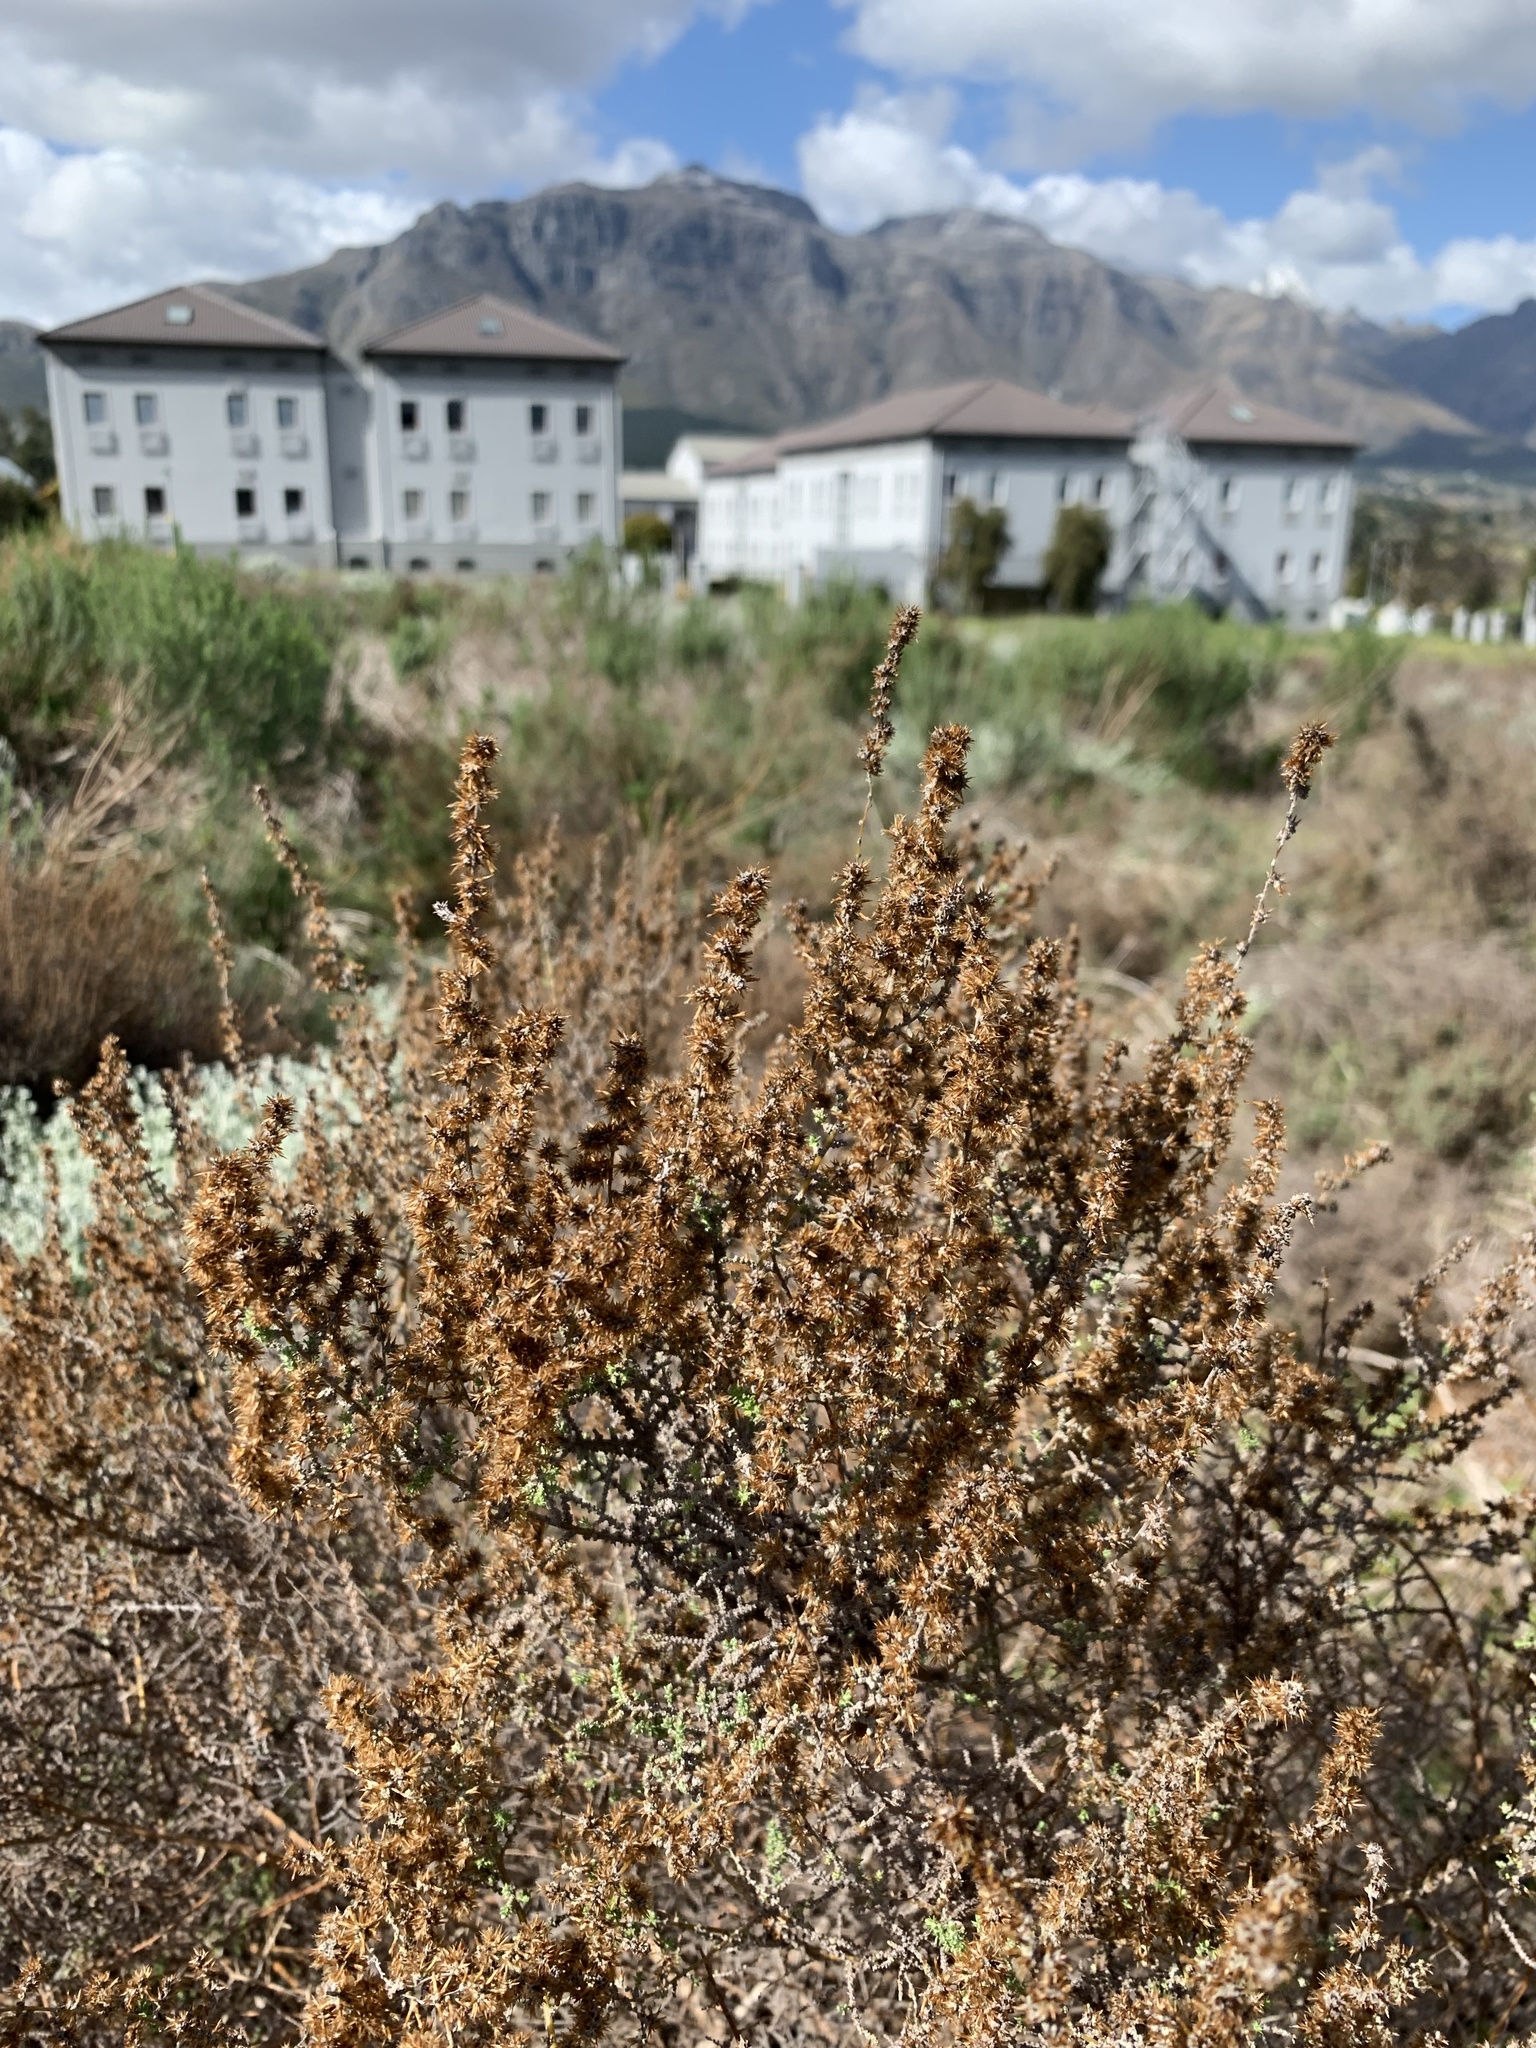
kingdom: Plantae
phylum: Tracheophyta
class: Magnoliopsida
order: Asterales
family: Asteraceae
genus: Seriphium
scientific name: Seriphium plumosum
